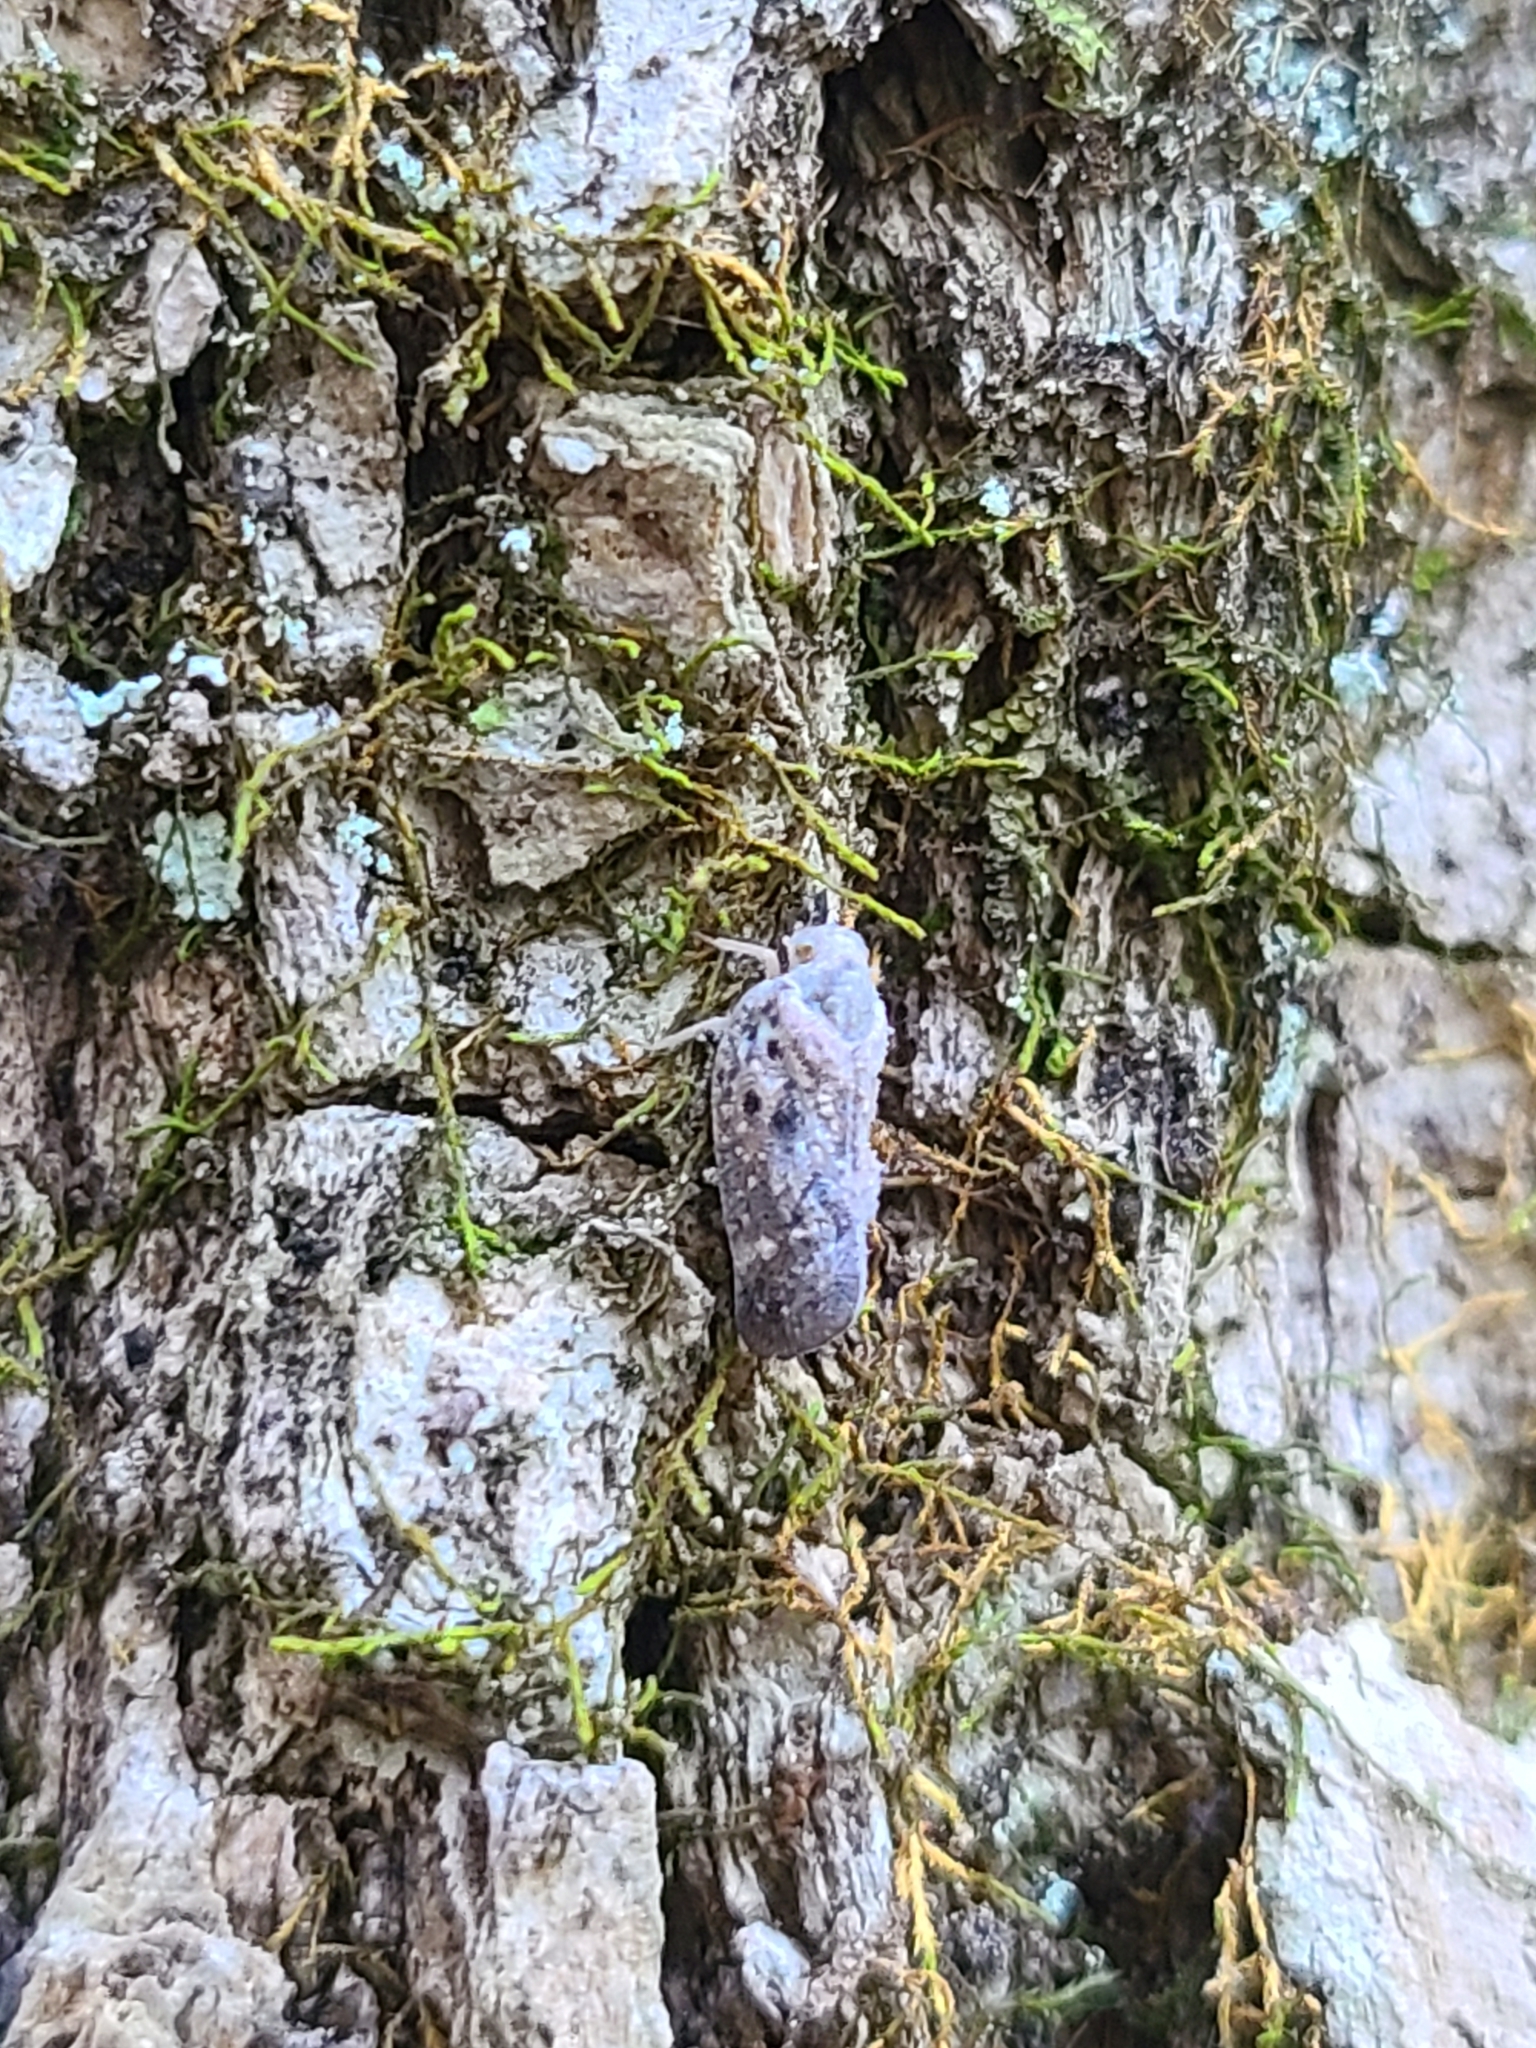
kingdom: Animalia
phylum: Arthropoda
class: Insecta
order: Hemiptera
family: Flatidae
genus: Metcalfa
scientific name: Metcalfa pruinosa
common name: Citrus flatid planthopper
